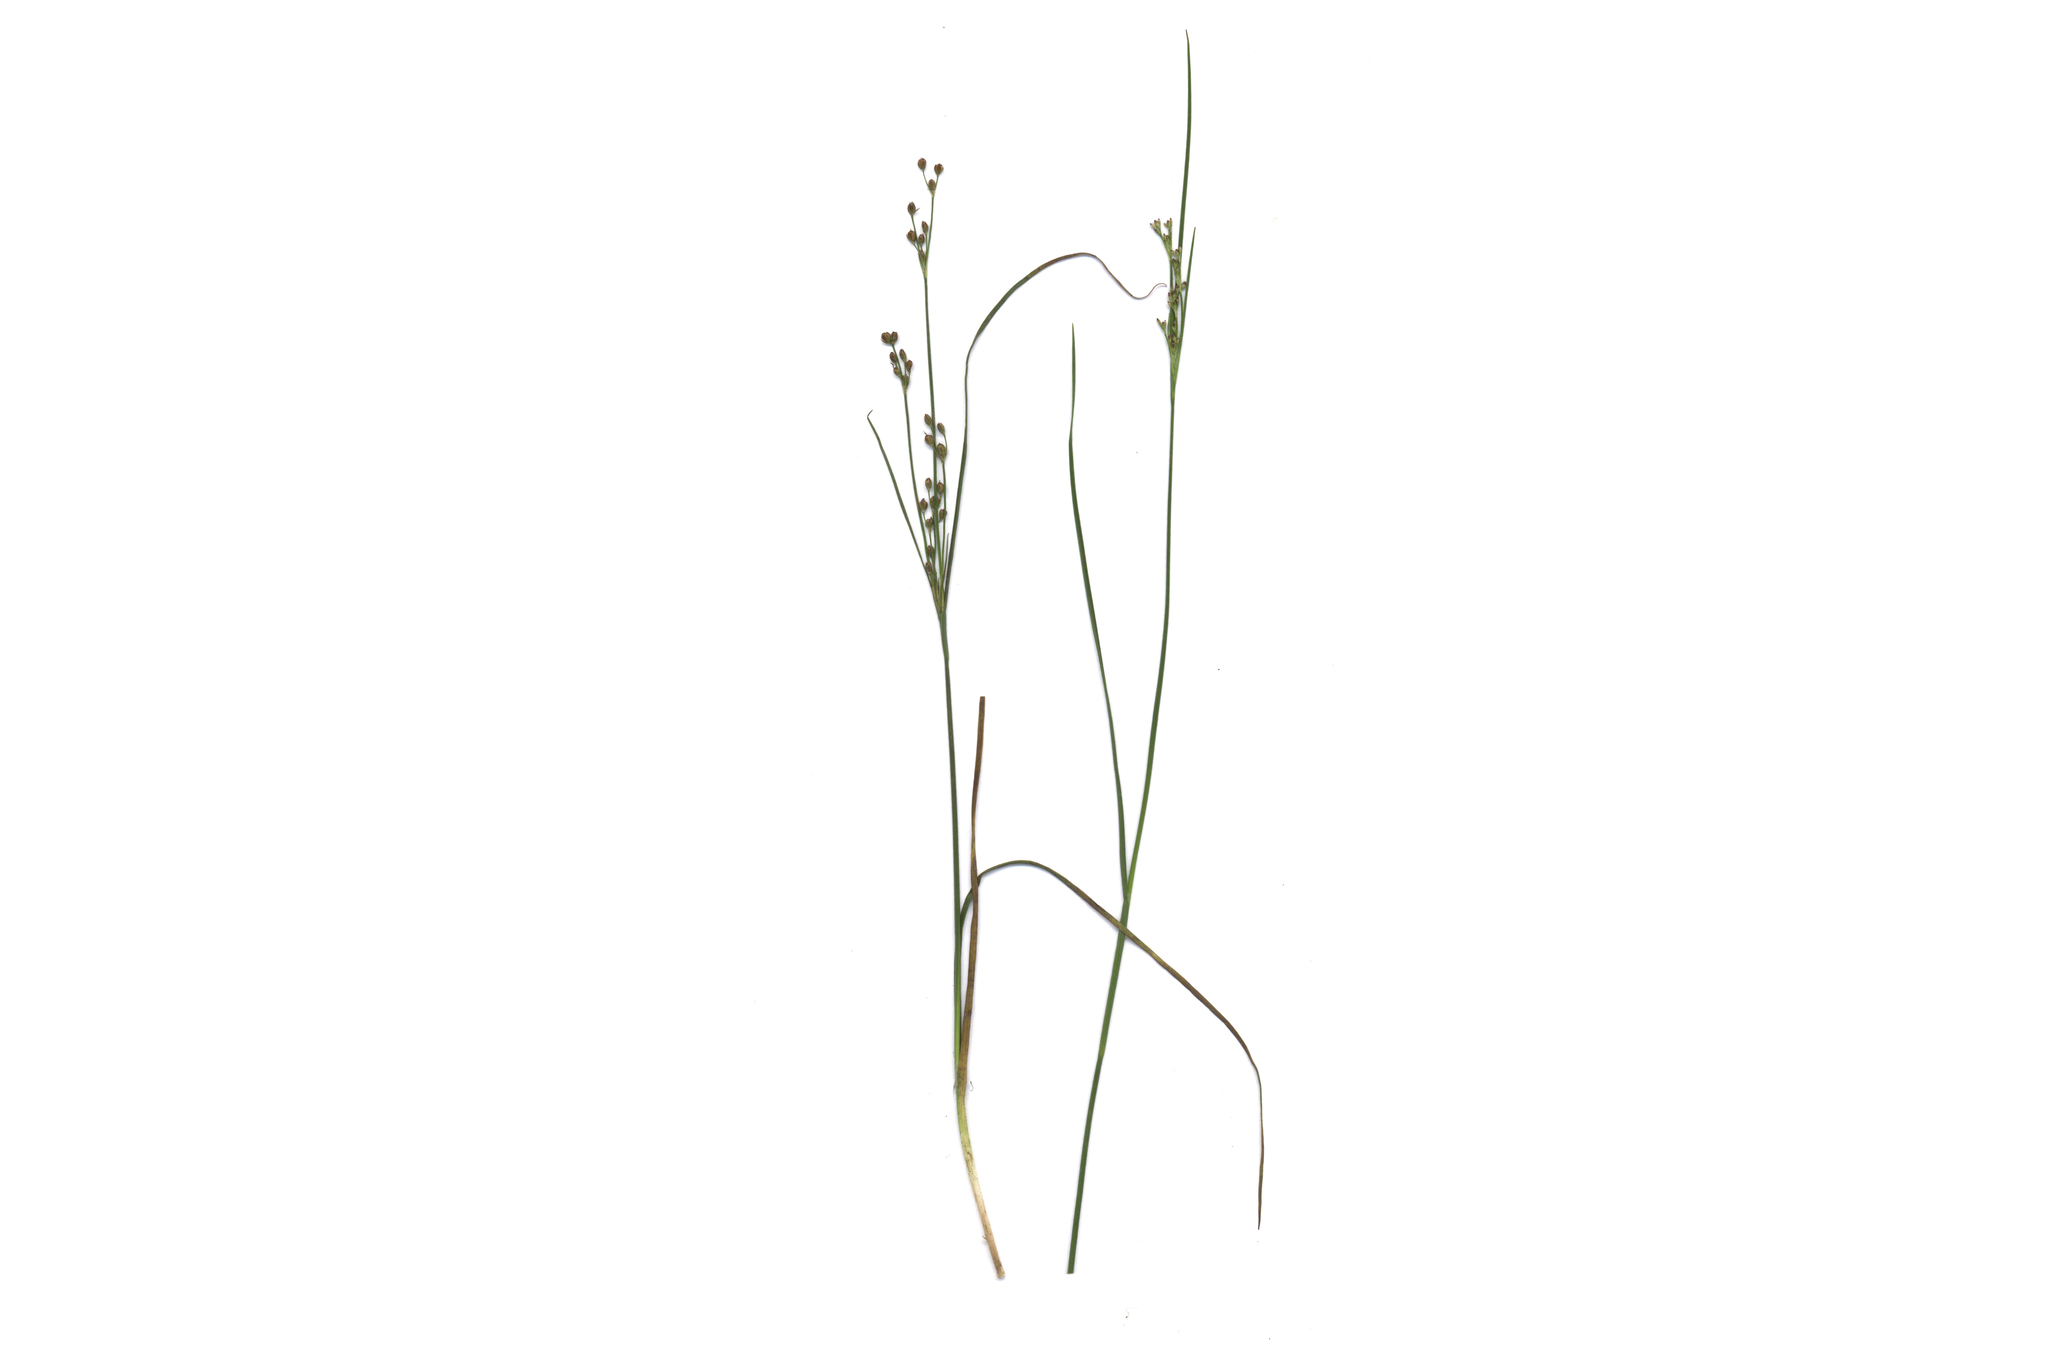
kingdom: Plantae
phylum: Tracheophyta
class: Liliopsida
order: Poales
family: Juncaceae
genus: Juncus
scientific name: Juncus compressus
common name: Round-fruited rush
